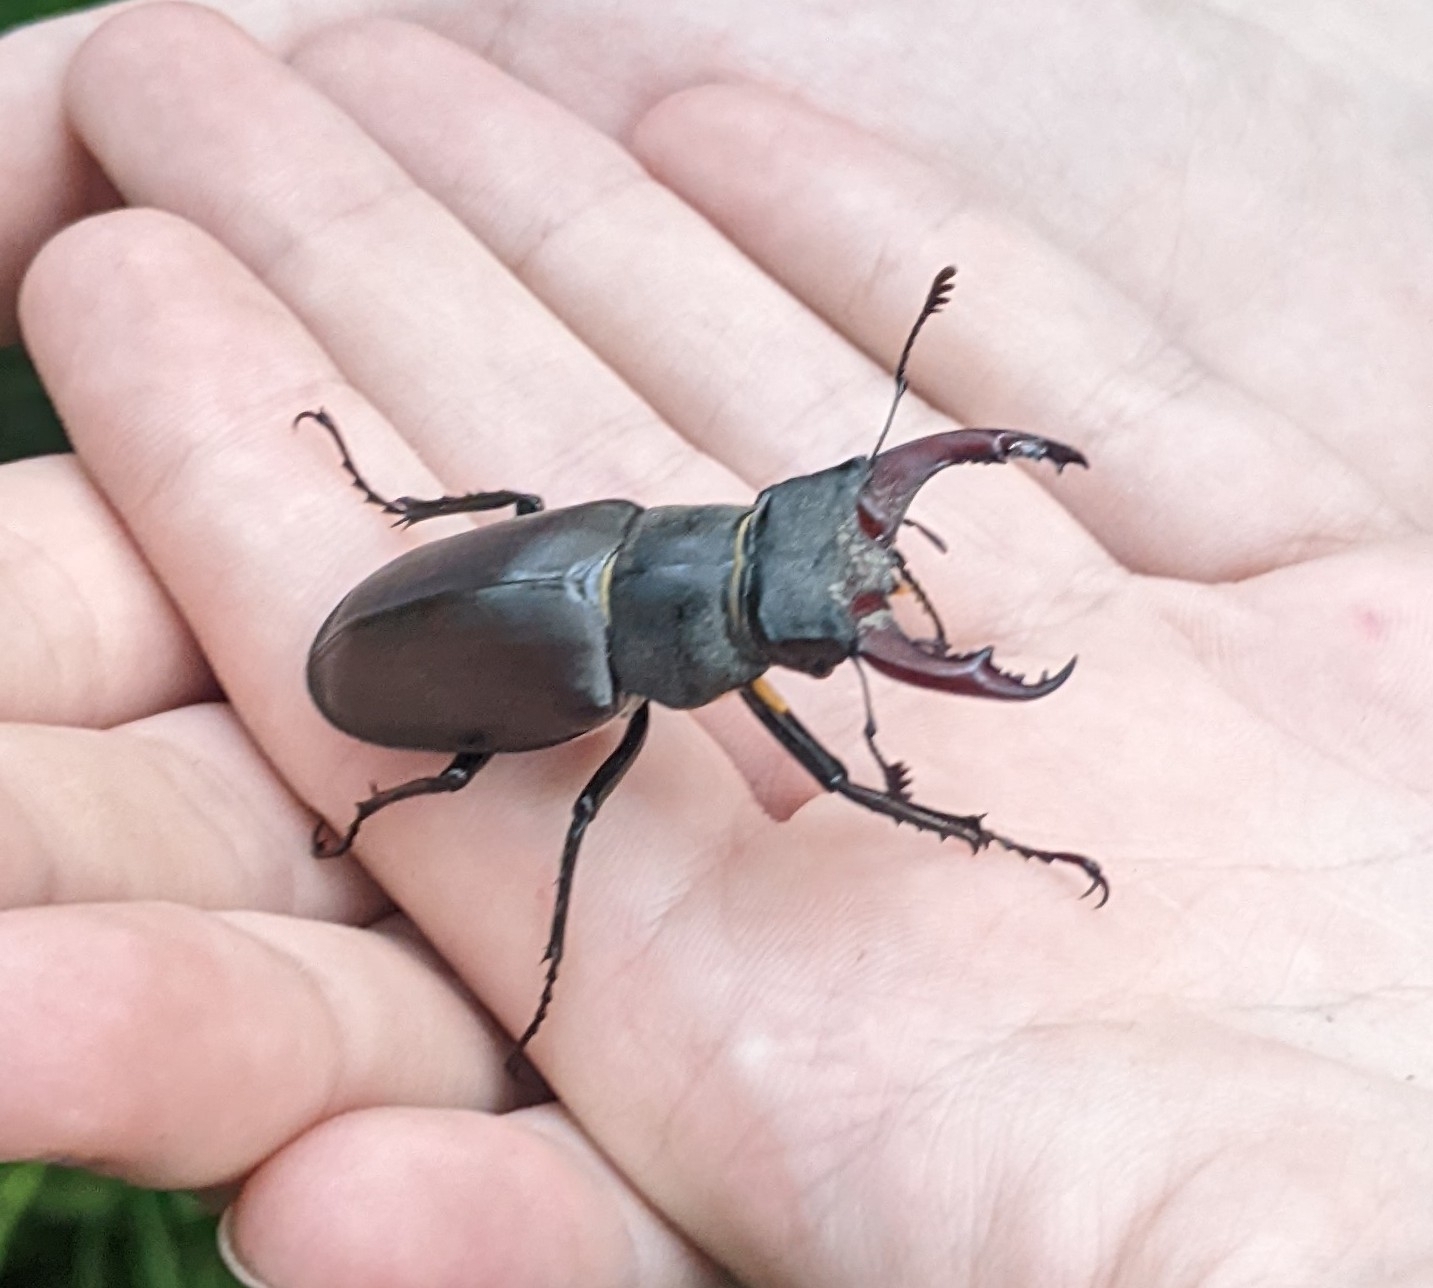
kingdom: Animalia
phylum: Arthropoda
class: Insecta
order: Coleoptera
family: Lucanidae
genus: Lucanus
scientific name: Lucanus cervus
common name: Stag beetle
